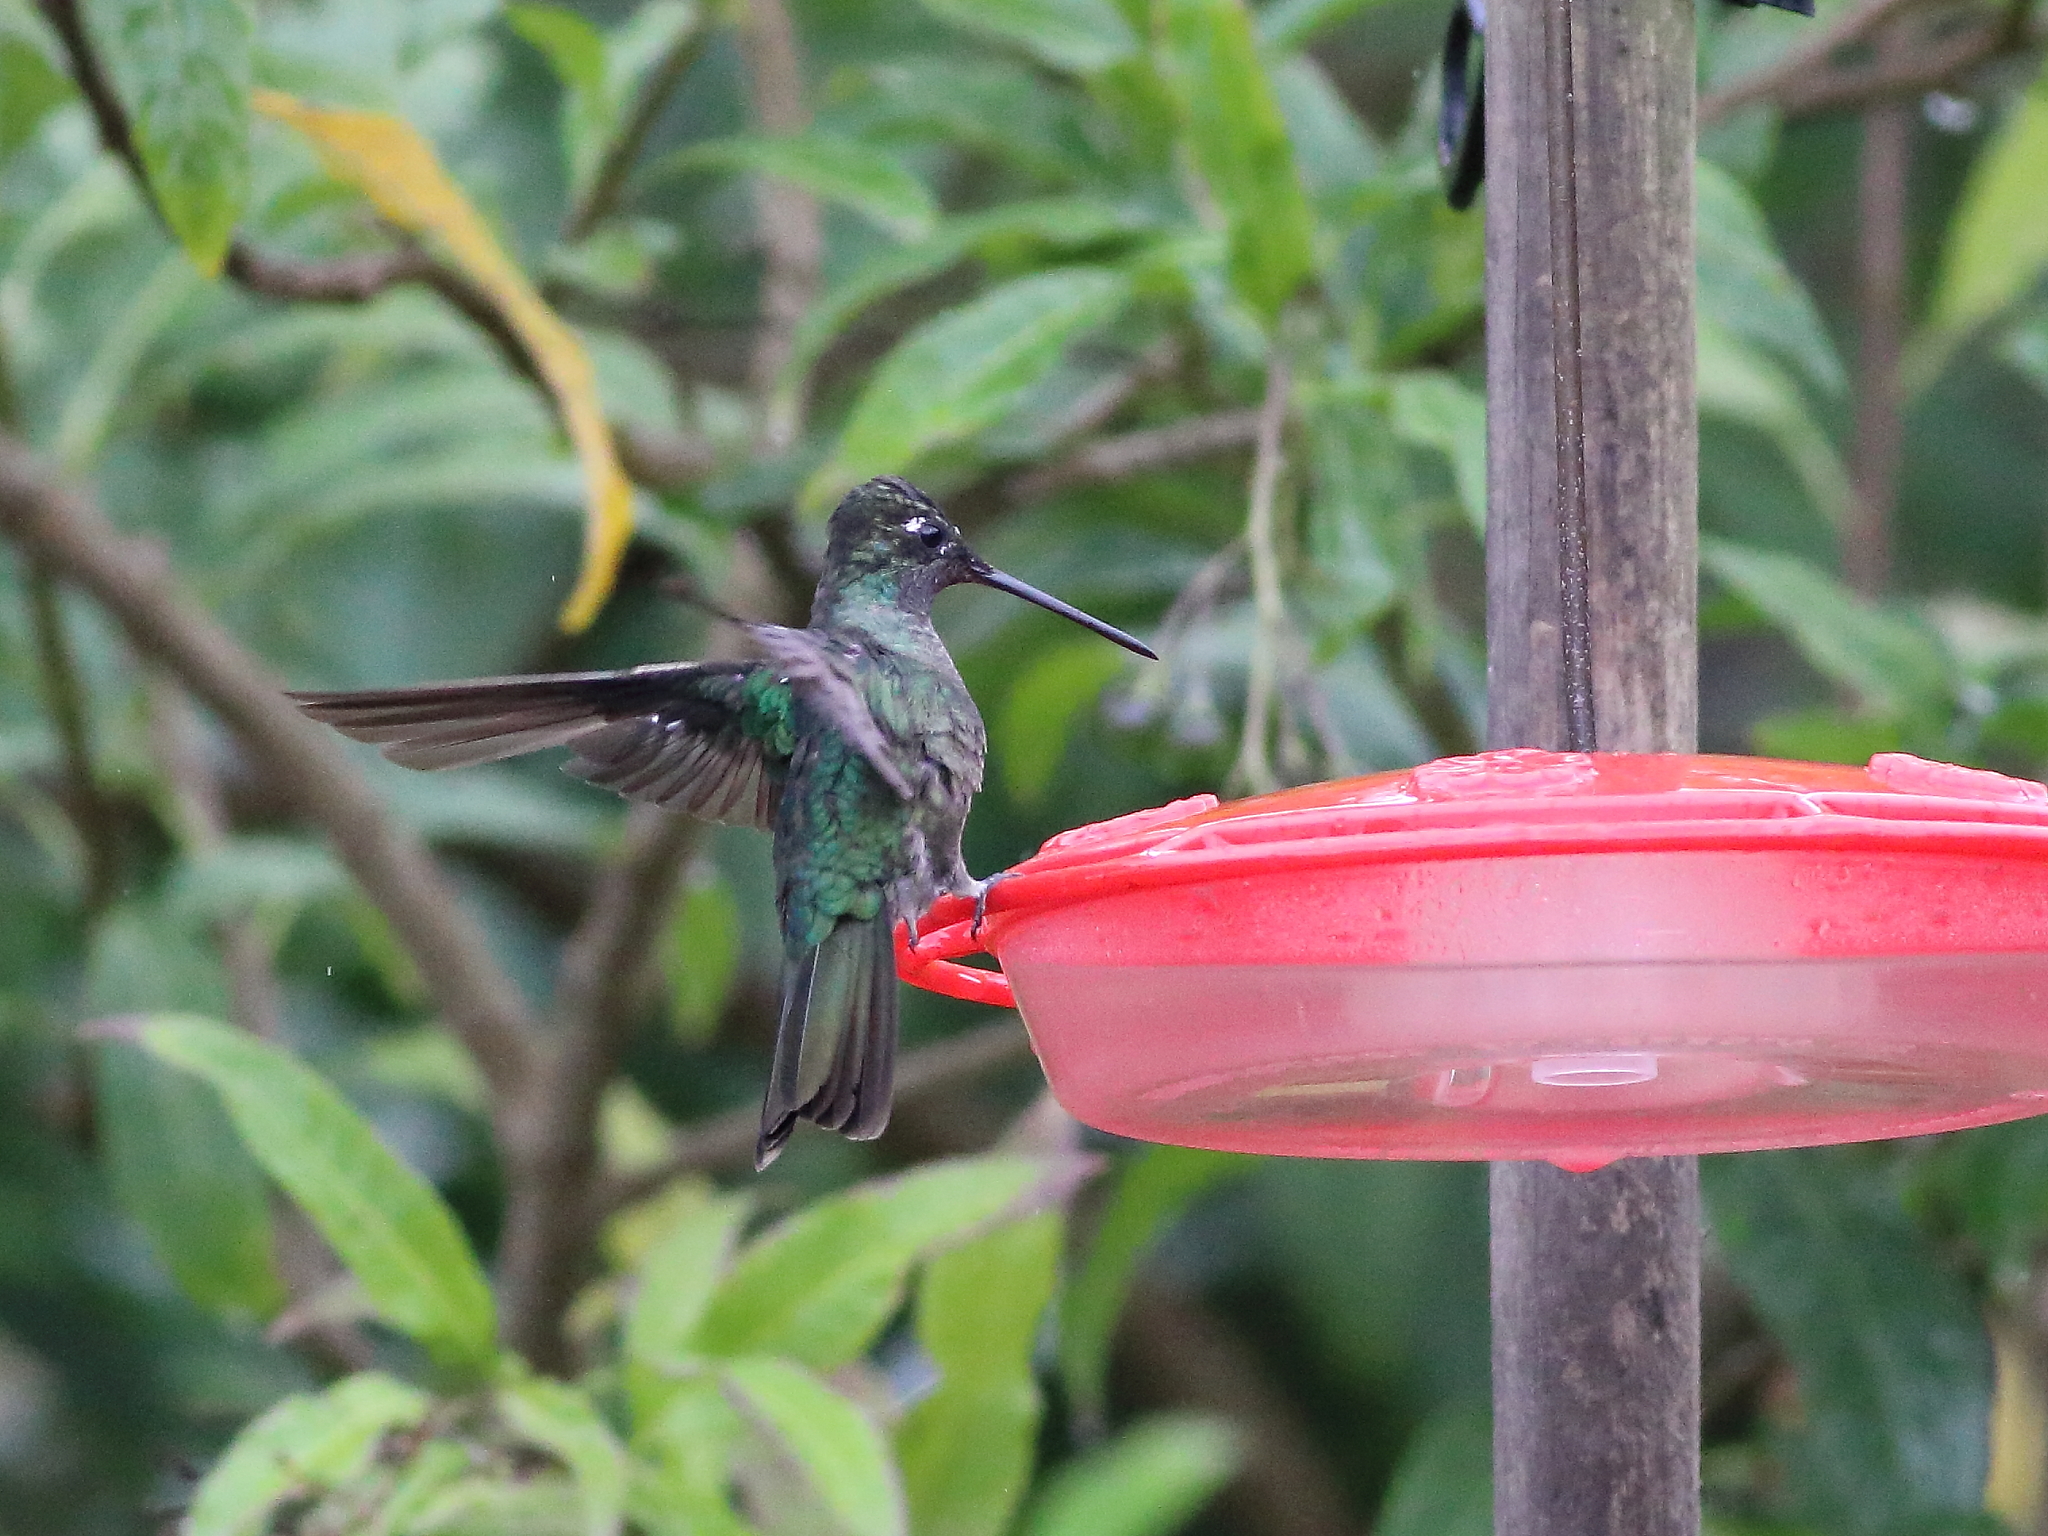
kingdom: Animalia
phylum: Chordata
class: Aves
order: Apodiformes
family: Trochilidae
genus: Eugenes
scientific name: Eugenes spectabilis
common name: Talamanca hummingbird
